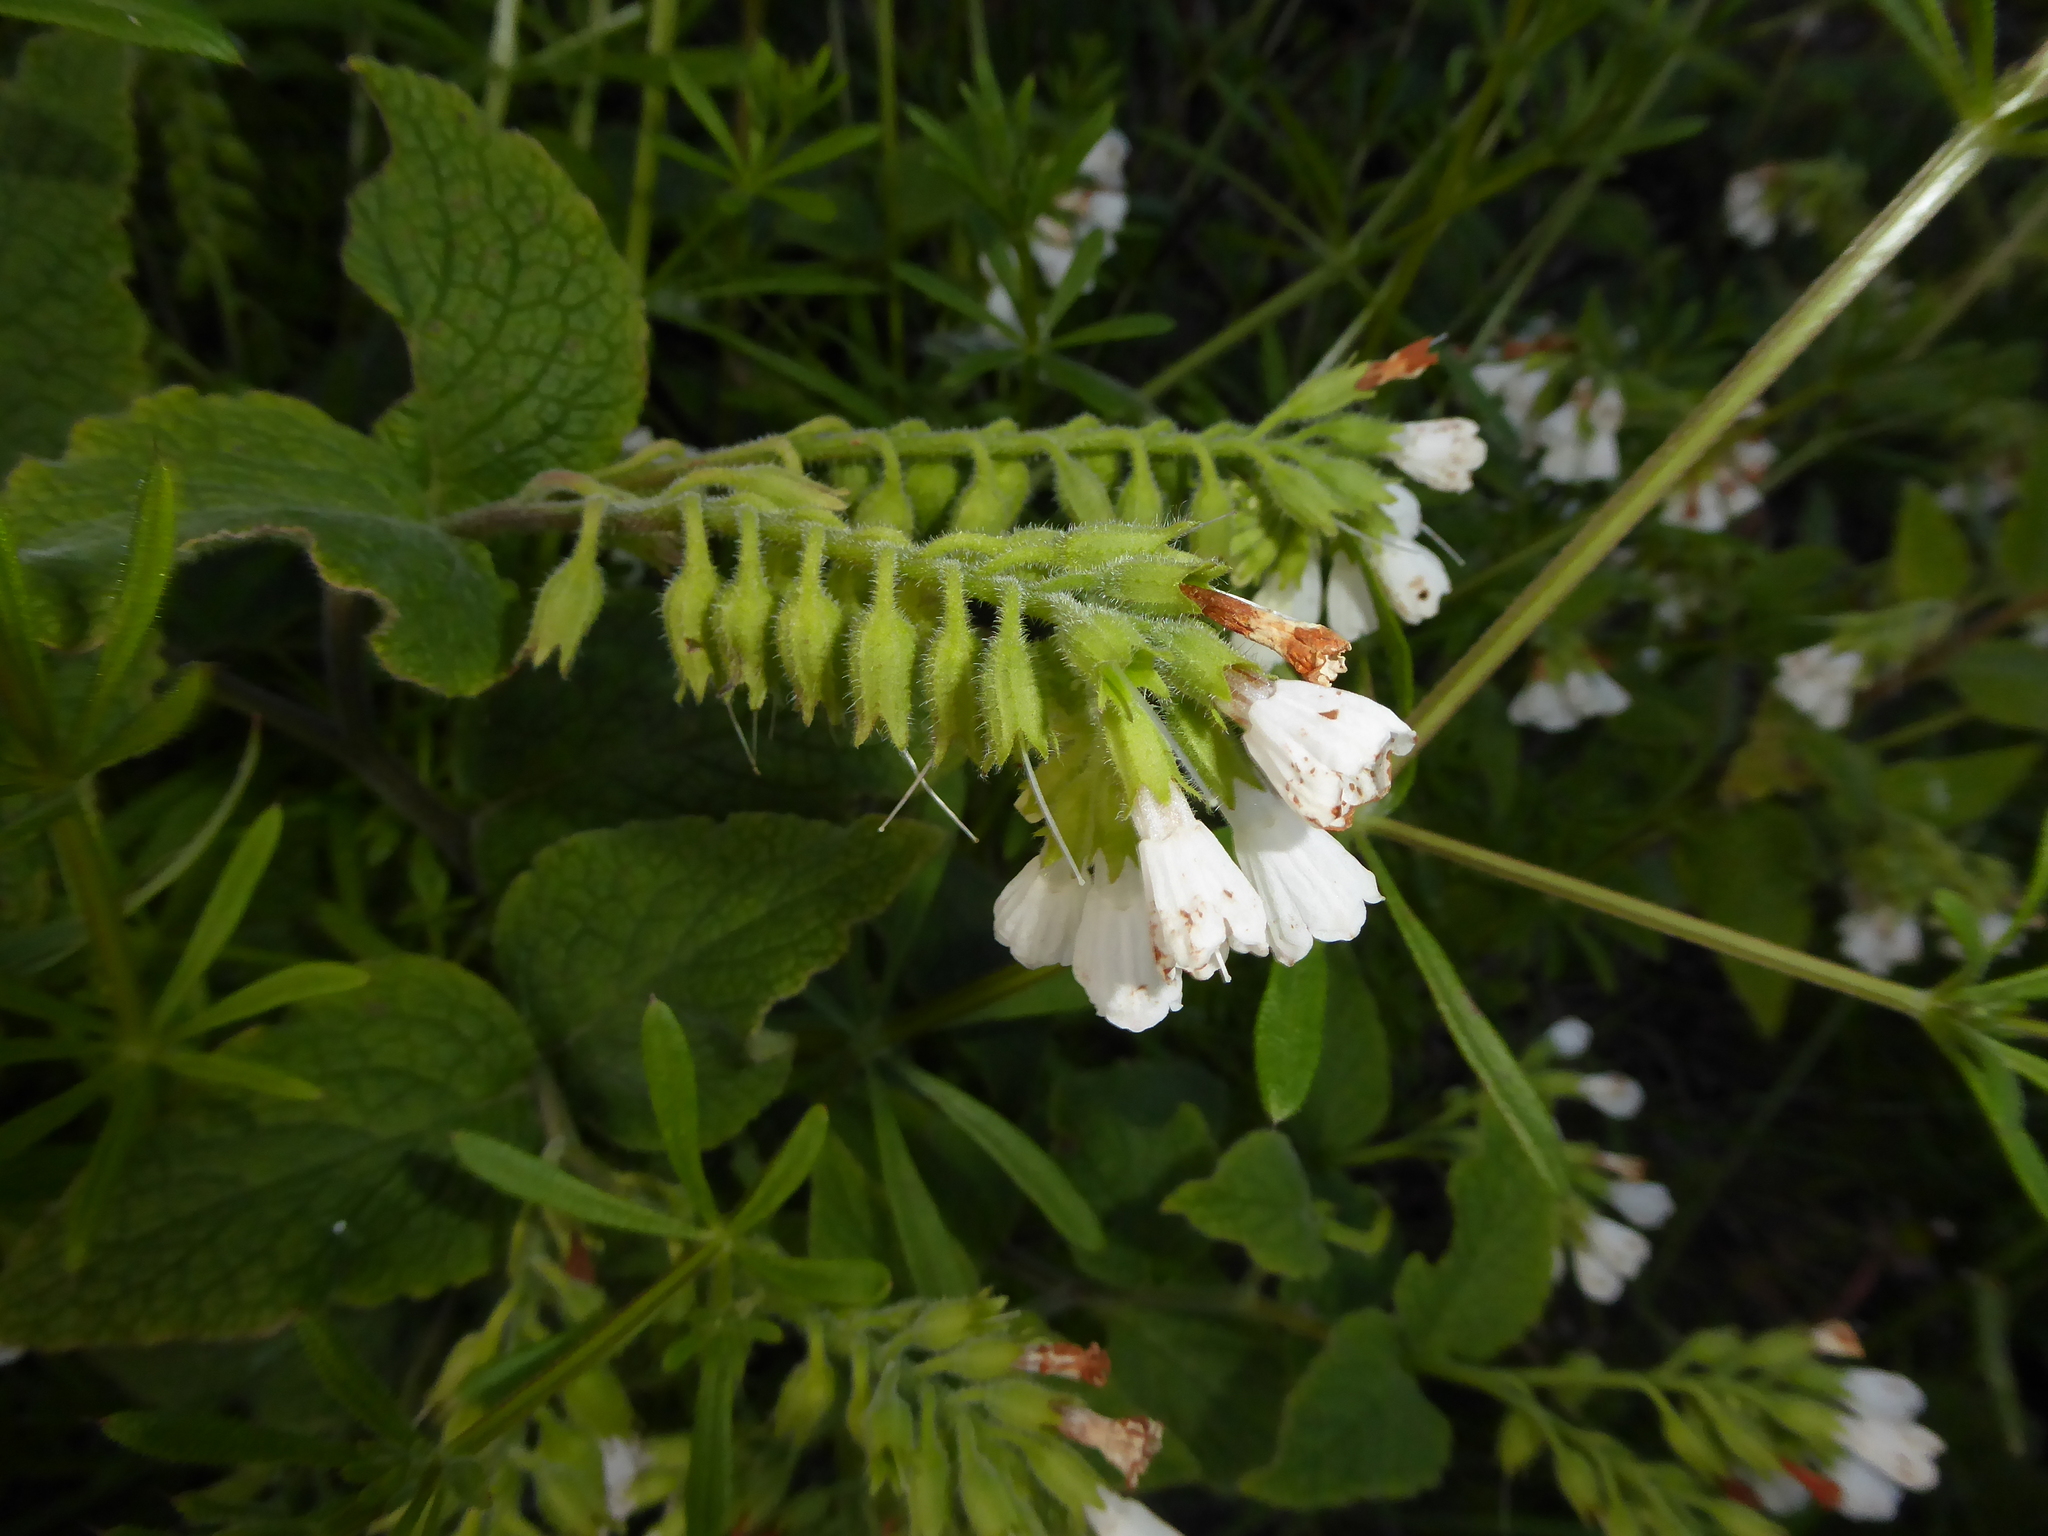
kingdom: Plantae
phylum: Tracheophyta
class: Magnoliopsida
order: Boraginales
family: Boraginaceae
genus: Symphytum
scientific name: Symphytum orientale
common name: White comfrey
